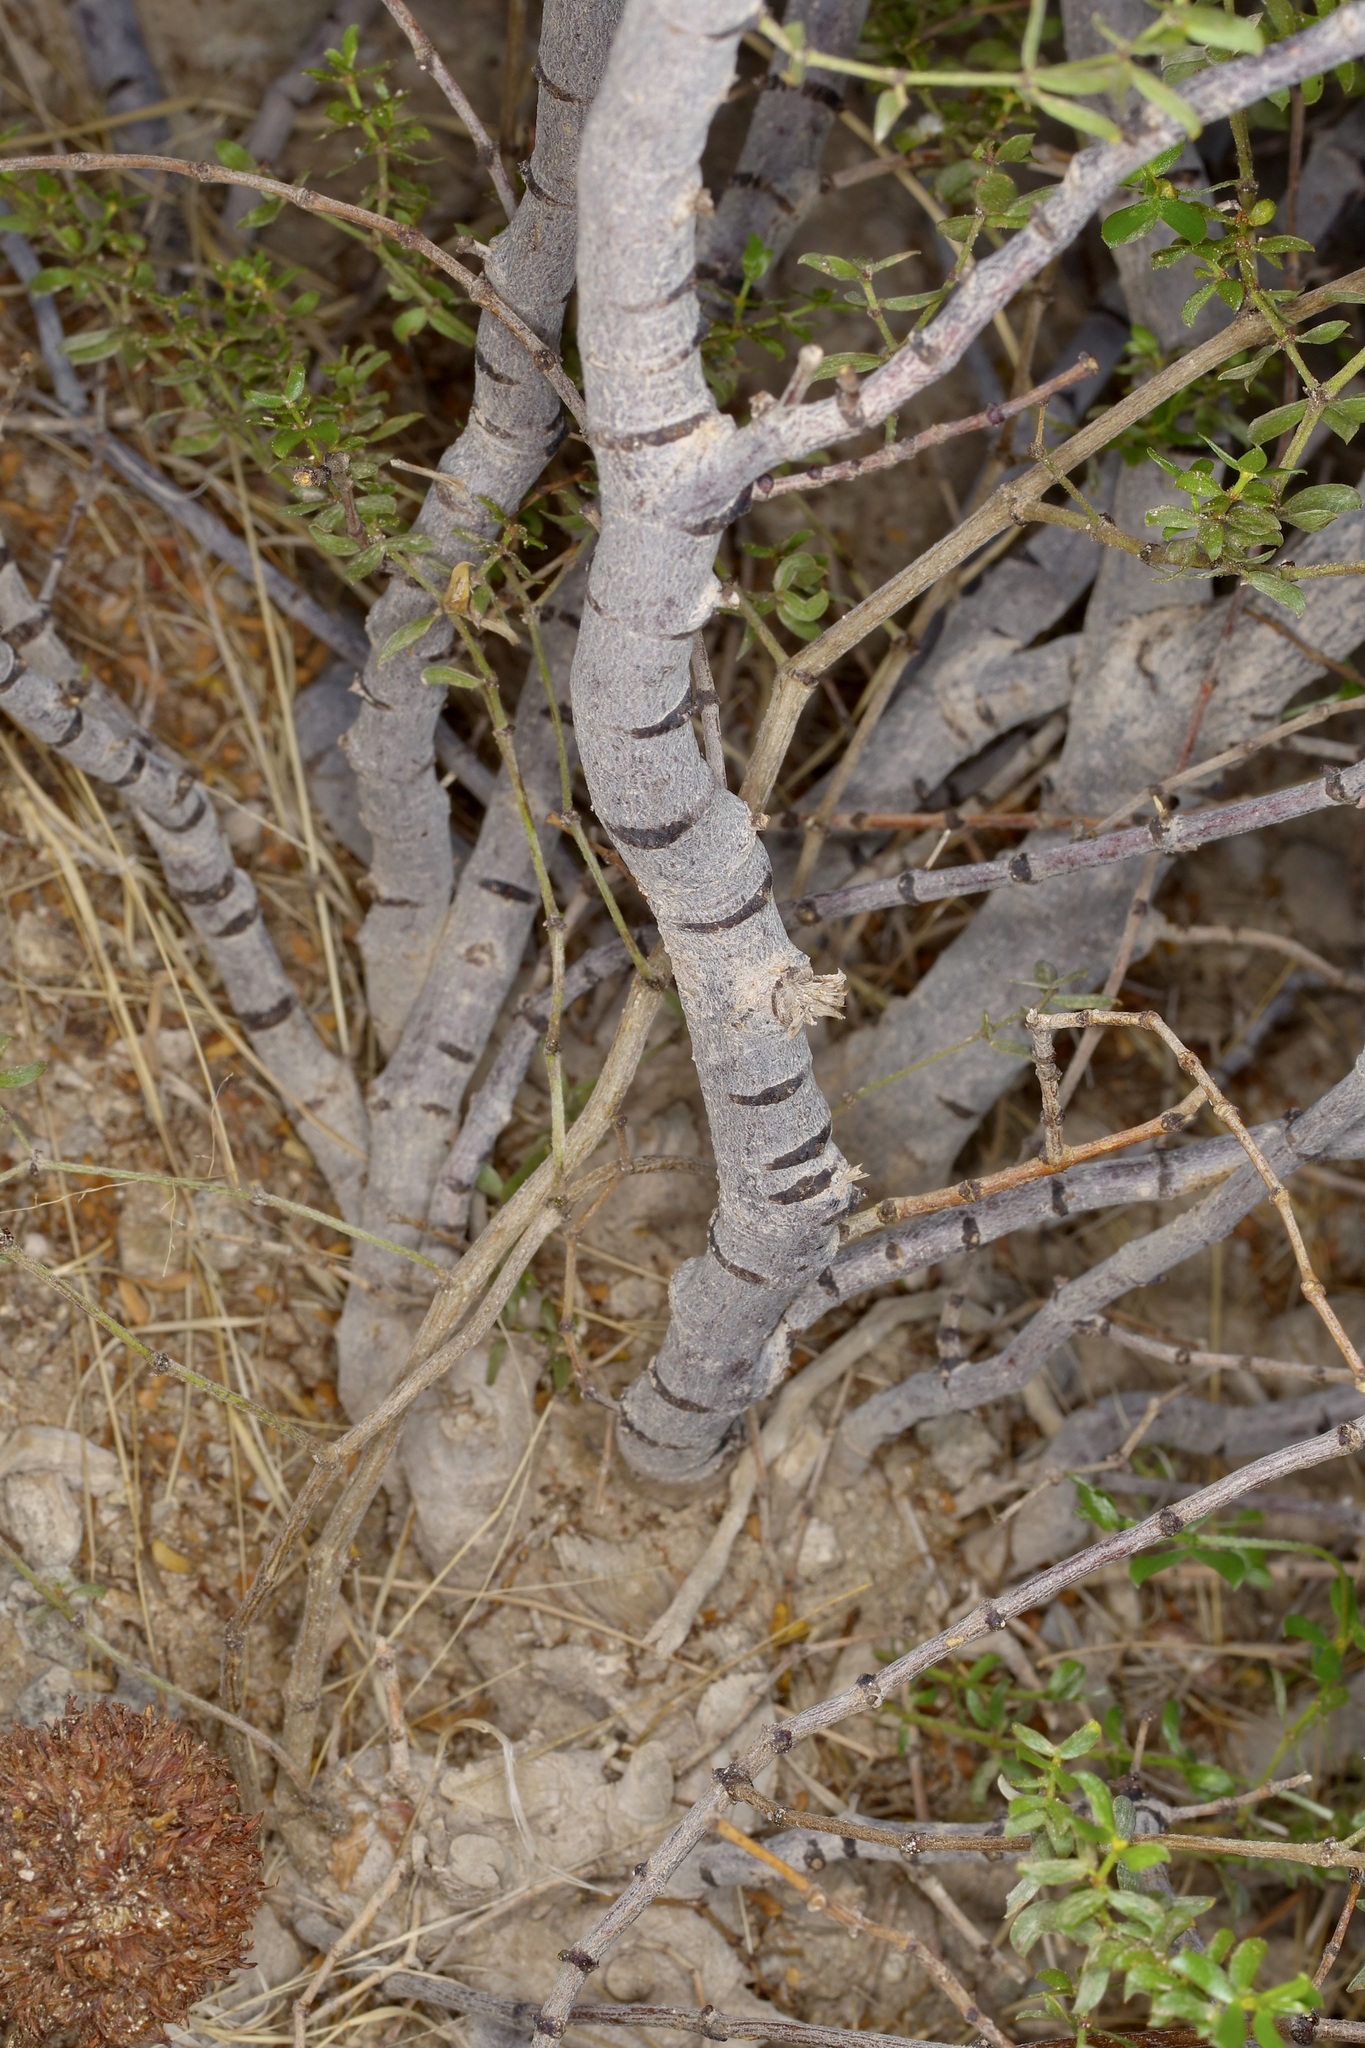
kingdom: Plantae
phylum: Tracheophyta
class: Magnoliopsida
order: Zygophyllales
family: Zygophyllaceae
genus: Larrea
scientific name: Larrea tridentata
